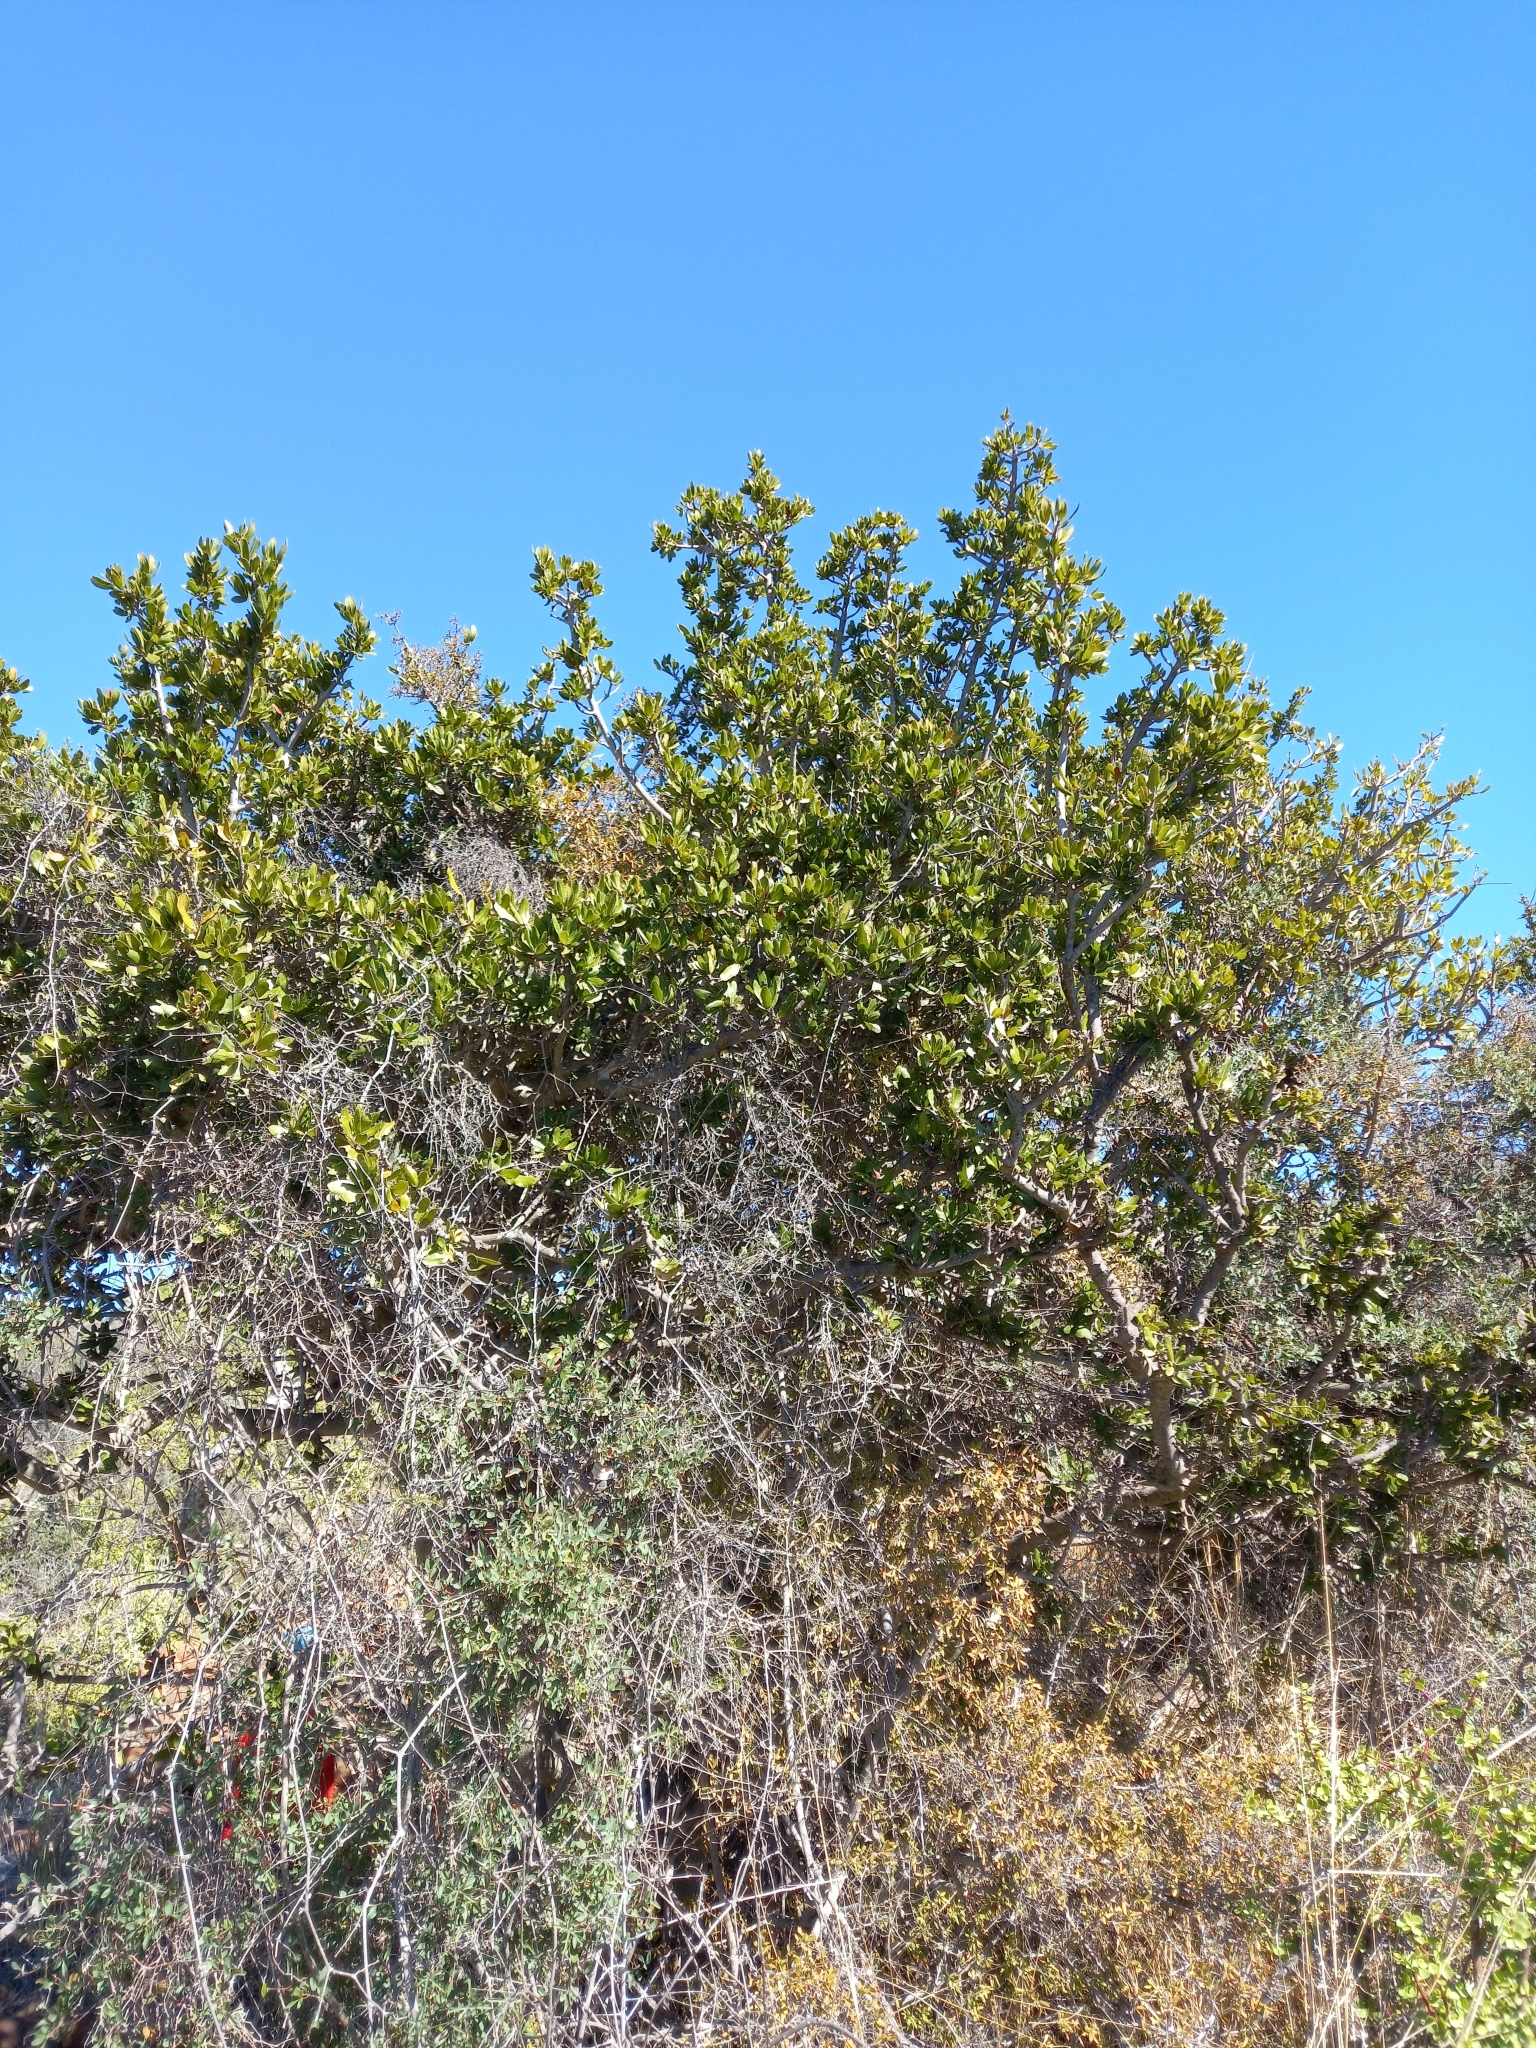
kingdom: Plantae
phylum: Tracheophyta
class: Magnoliopsida
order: Sapindales
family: Sapindaceae
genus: Pappea
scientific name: Pappea capensis
